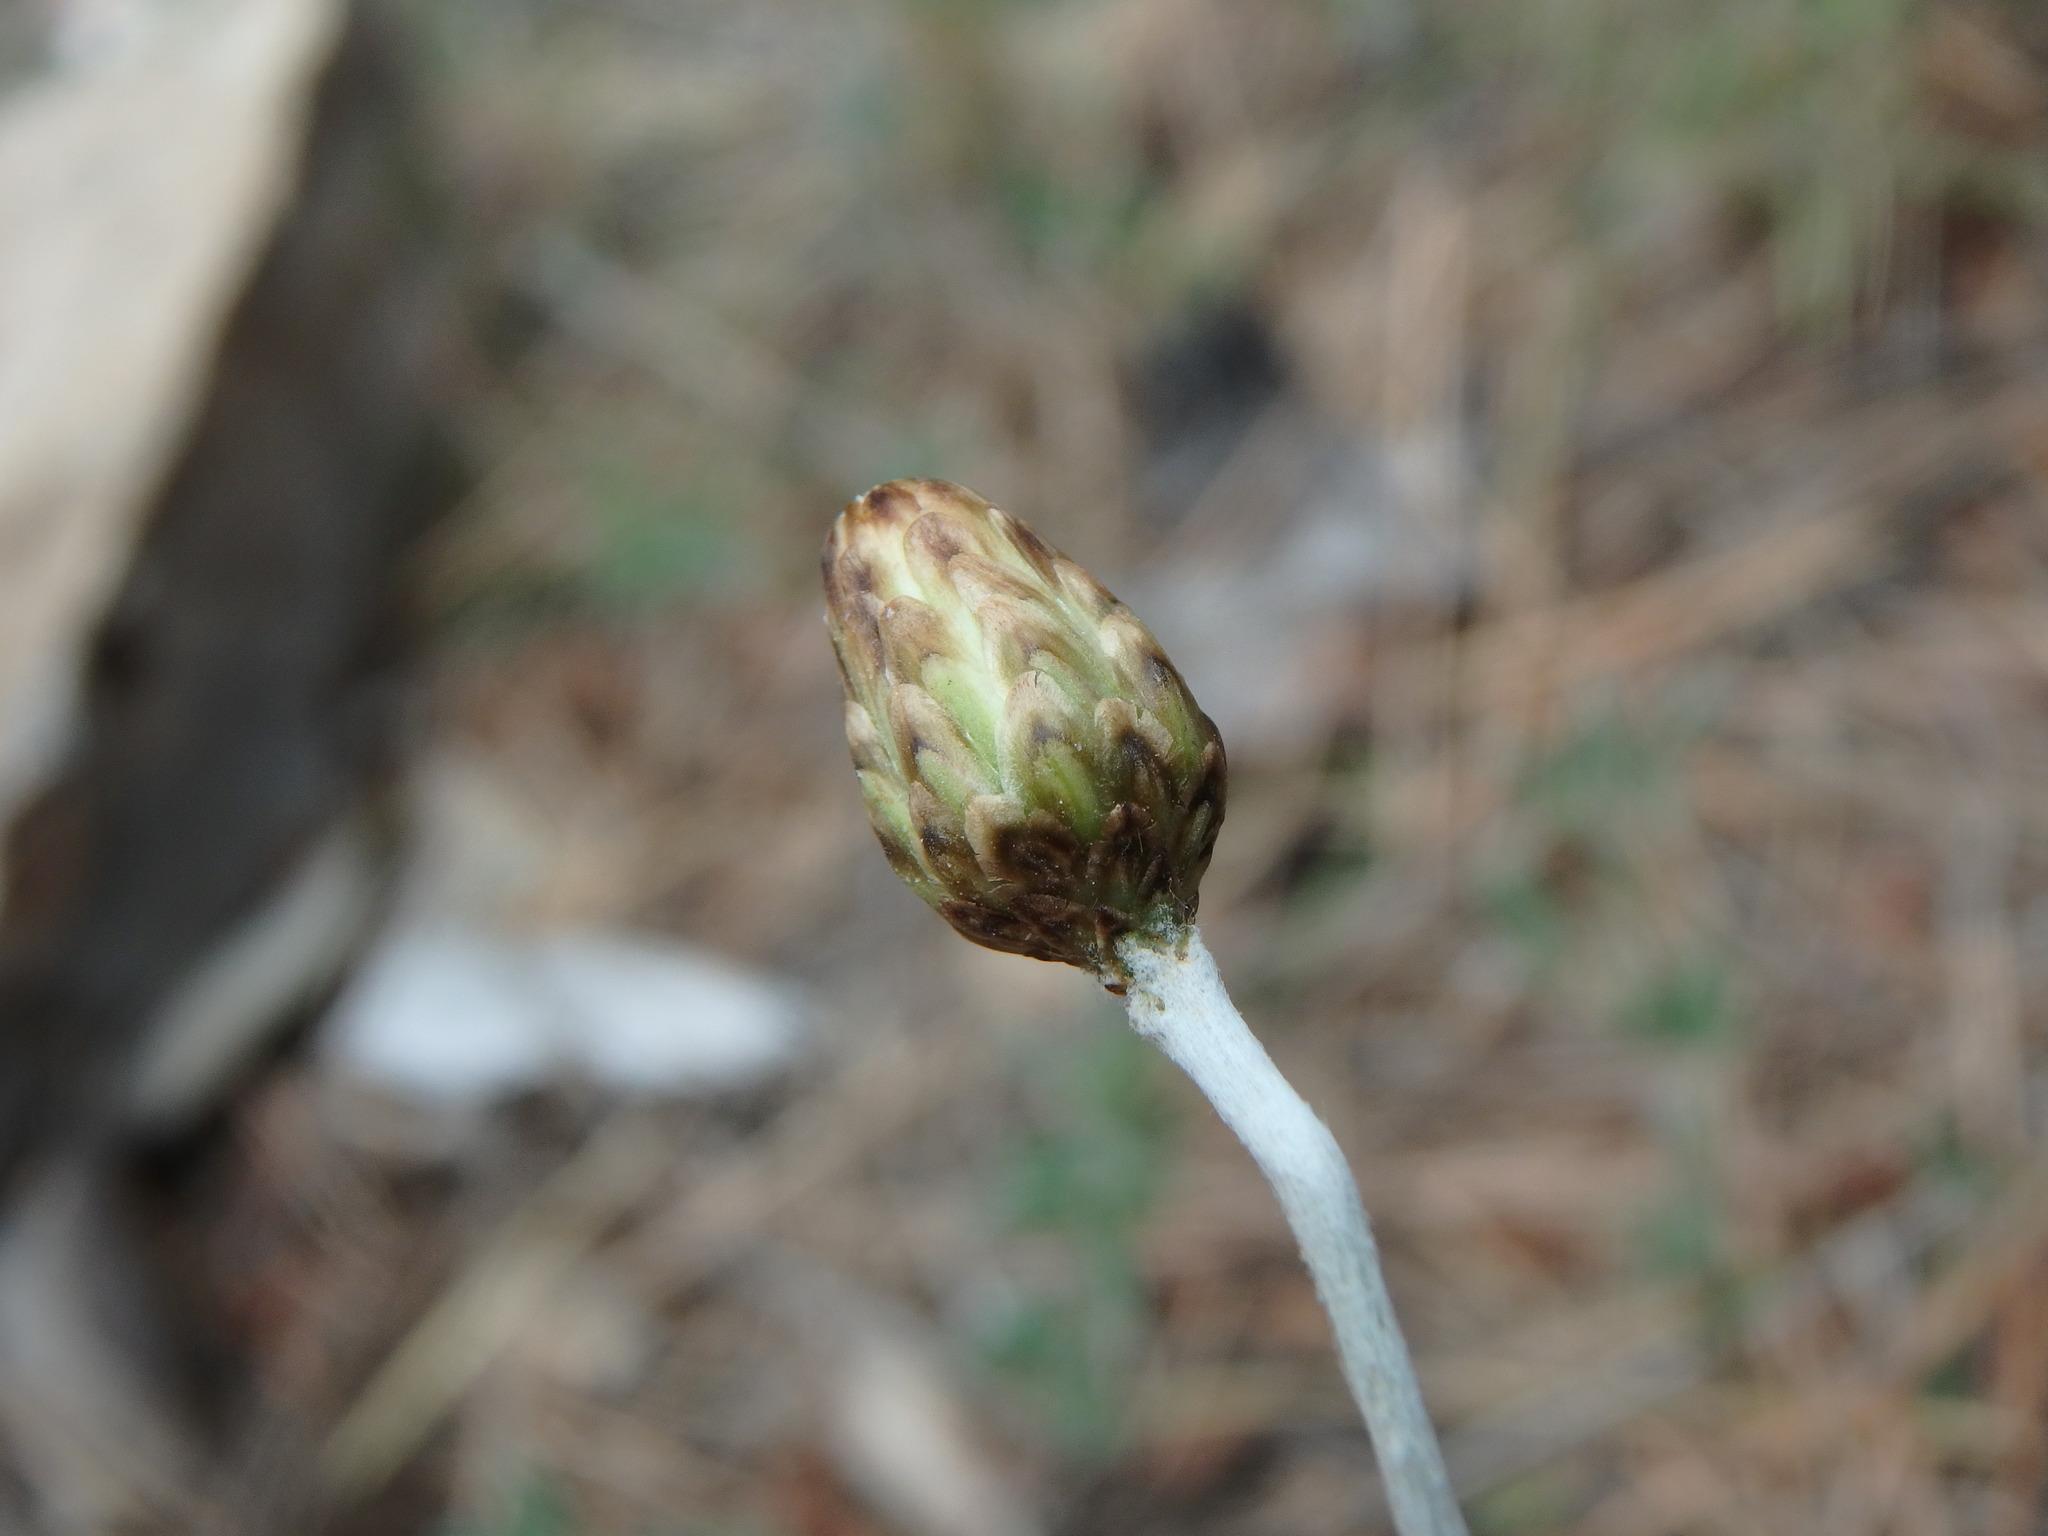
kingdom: Plantae
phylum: Tracheophyta
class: Magnoliopsida
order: Asterales
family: Asteraceae
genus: Phagnalon
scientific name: Phagnalon rupestre
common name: Rock phagnalon
